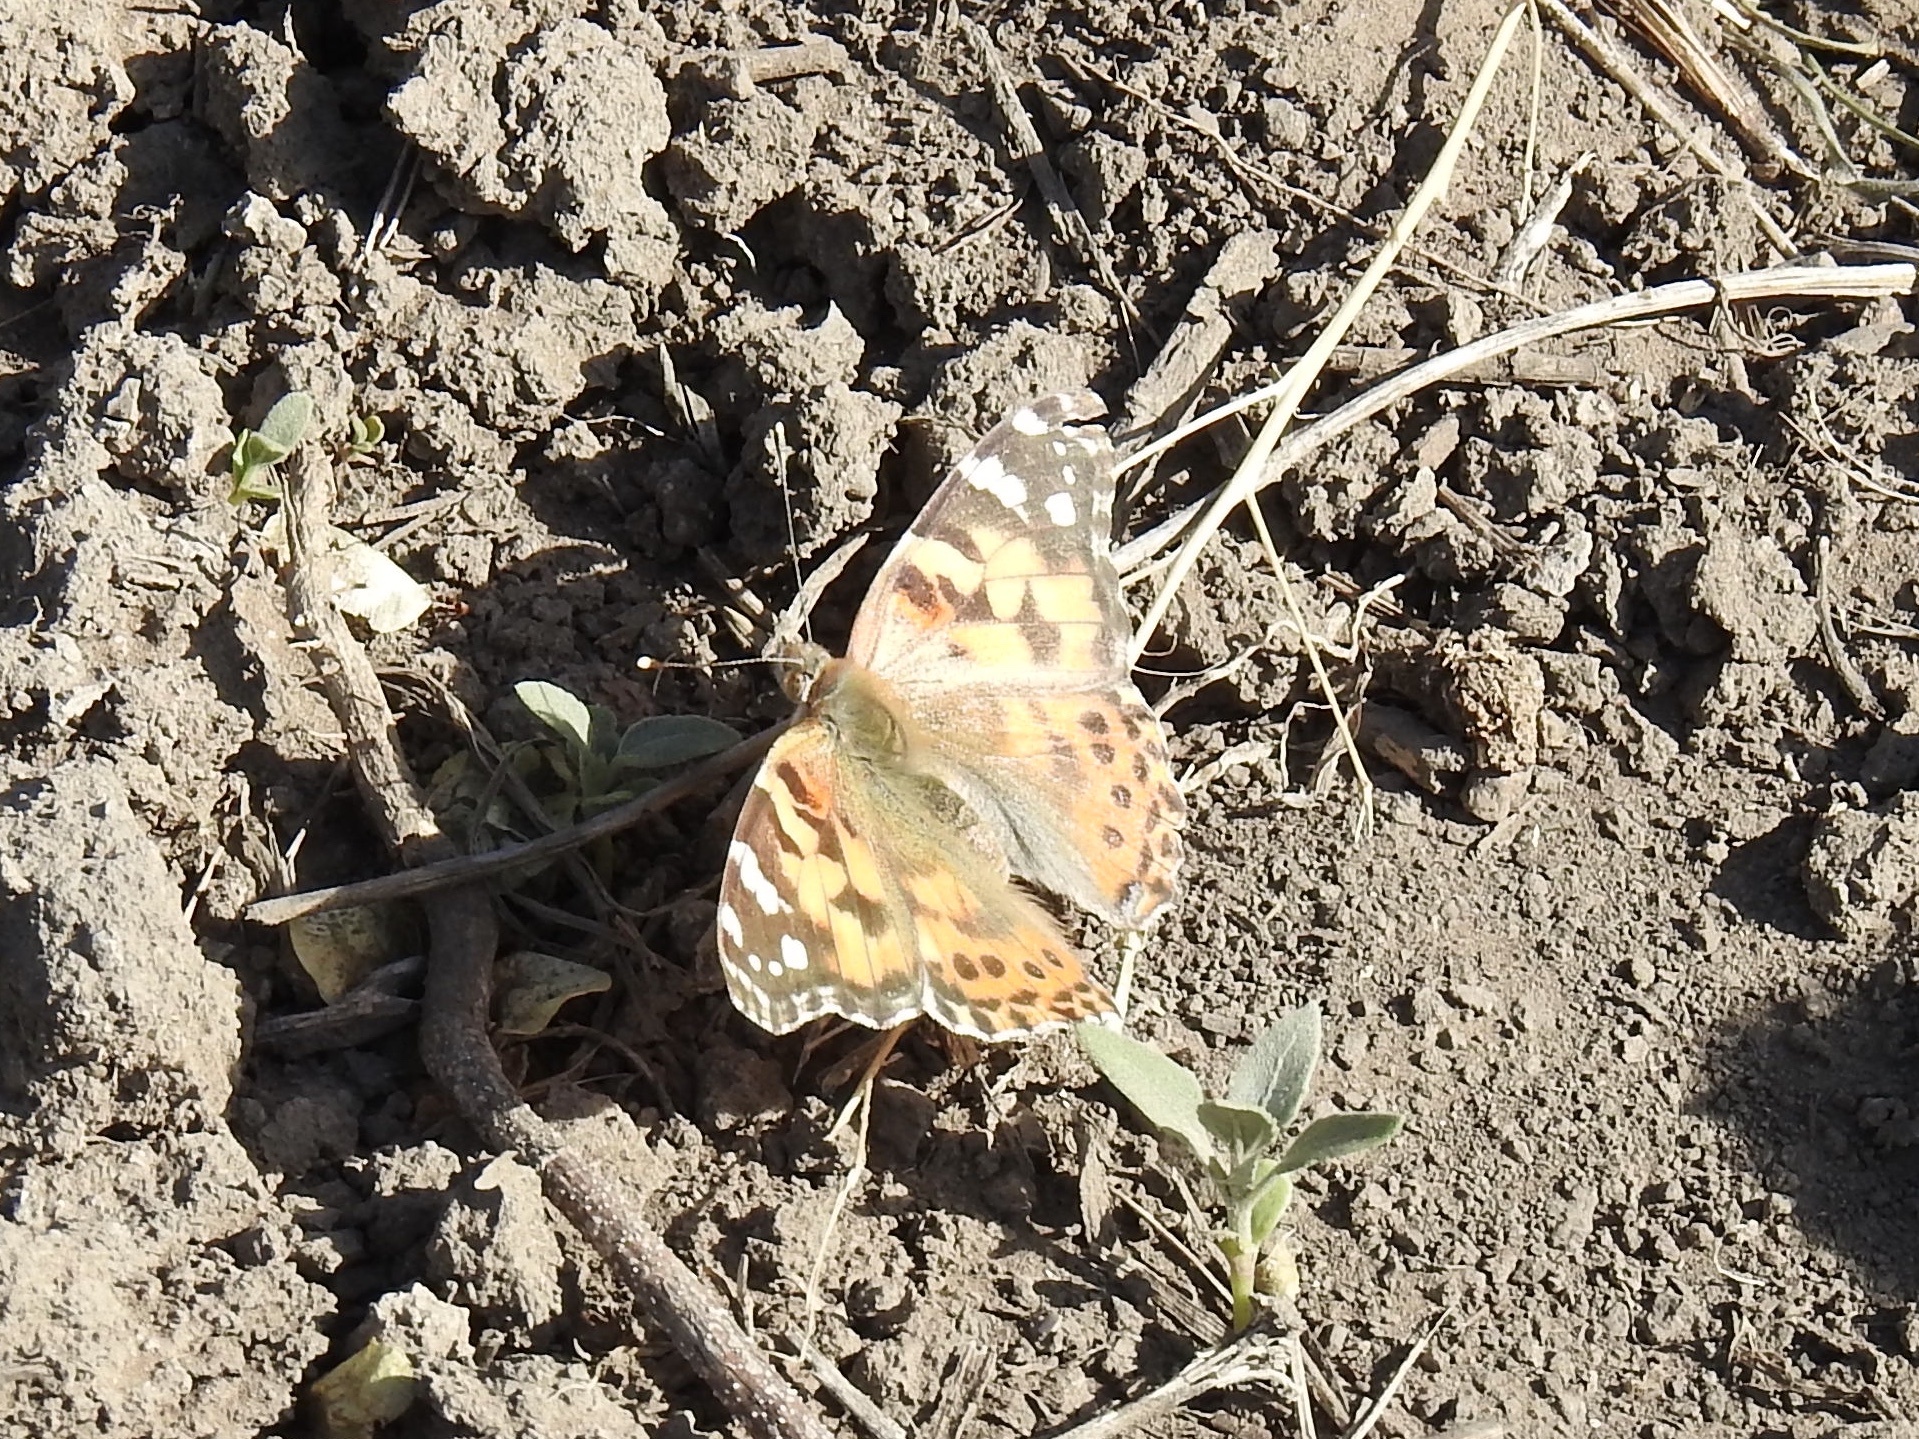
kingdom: Animalia
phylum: Arthropoda
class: Insecta
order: Lepidoptera
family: Nymphalidae
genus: Vanessa
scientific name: Vanessa cardui
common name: Painted lady
